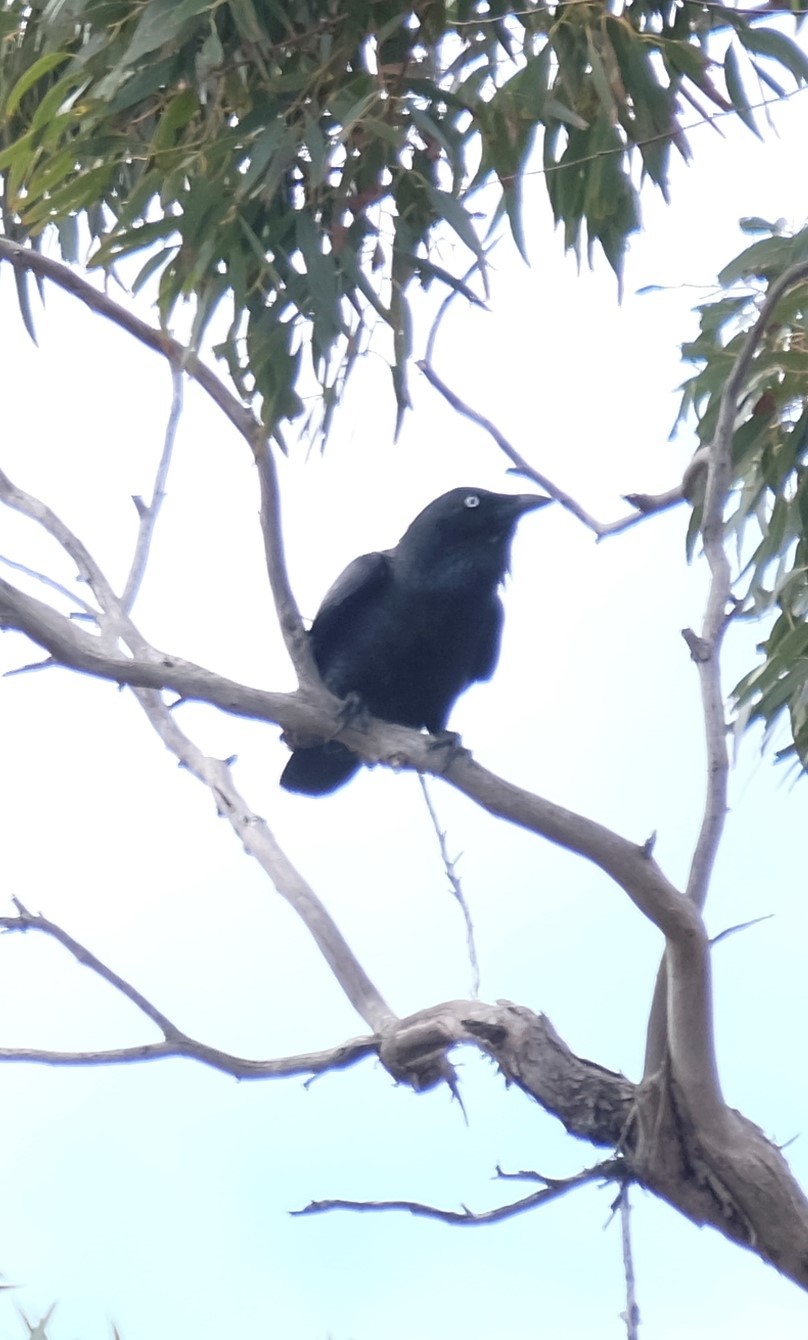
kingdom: Animalia
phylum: Chordata
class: Aves
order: Passeriformes
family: Corvidae
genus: Corvus
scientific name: Corvus mellori
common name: Little raven
